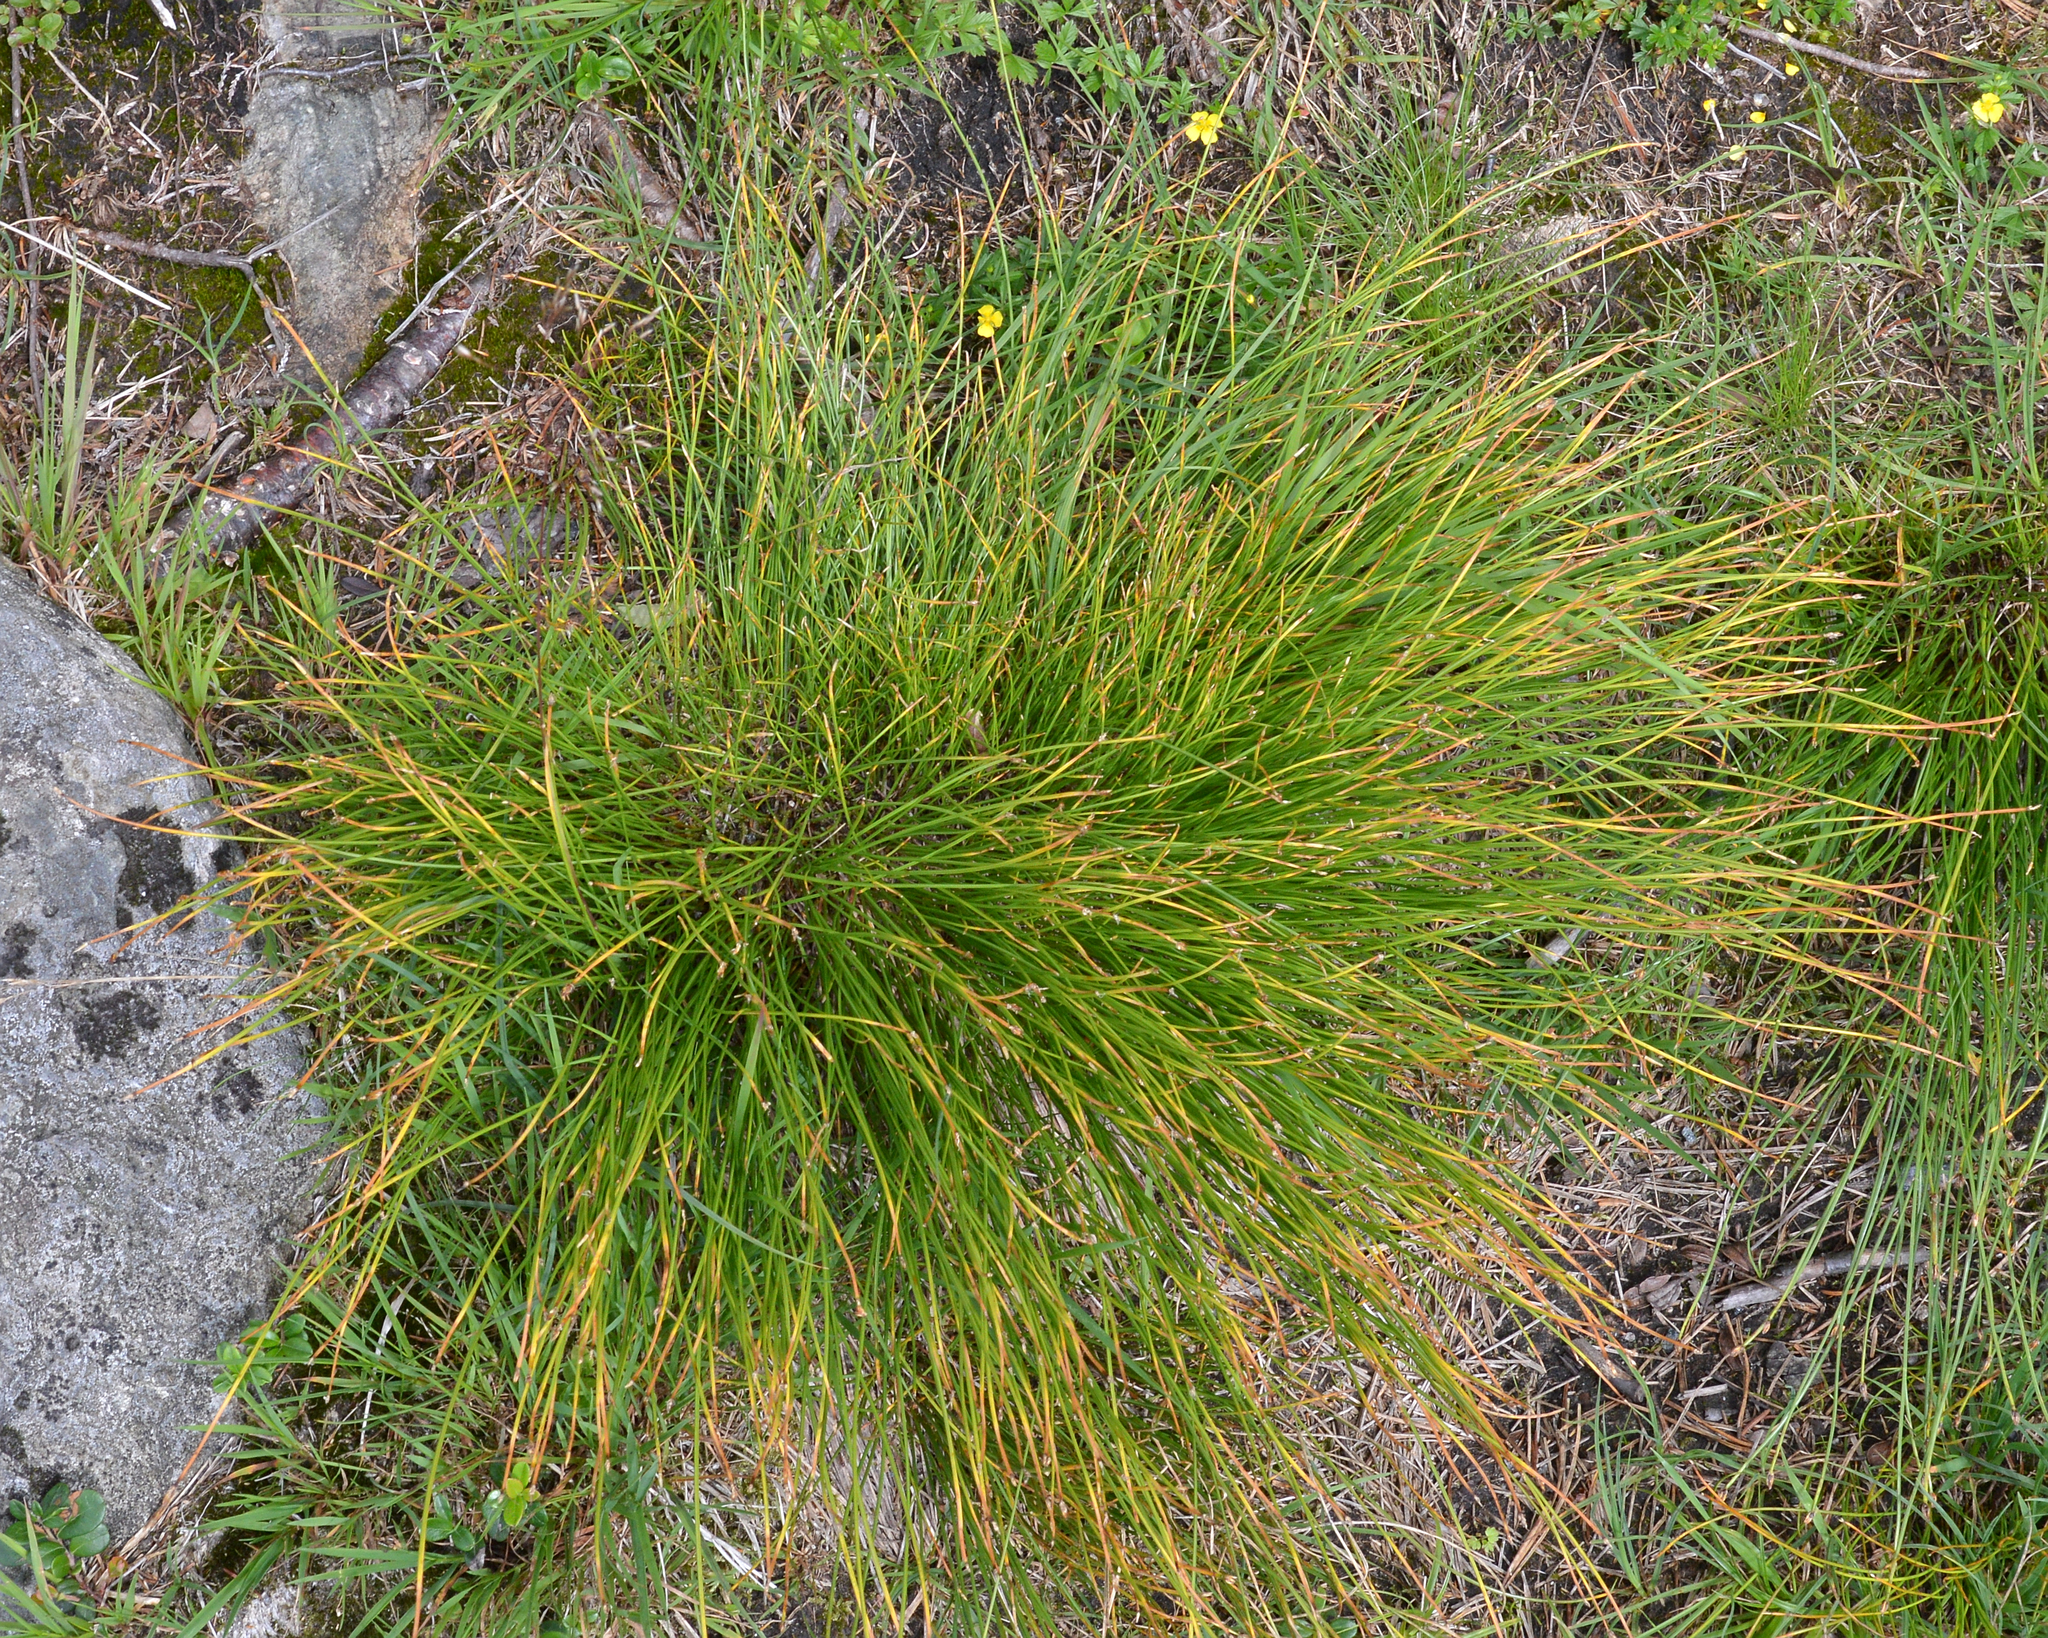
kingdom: Plantae
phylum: Tracheophyta
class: Liliopsida
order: Poales
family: Cyperaceae
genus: Trichophorum
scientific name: Trichophorum cespitosum
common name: Cespitose bulrush
